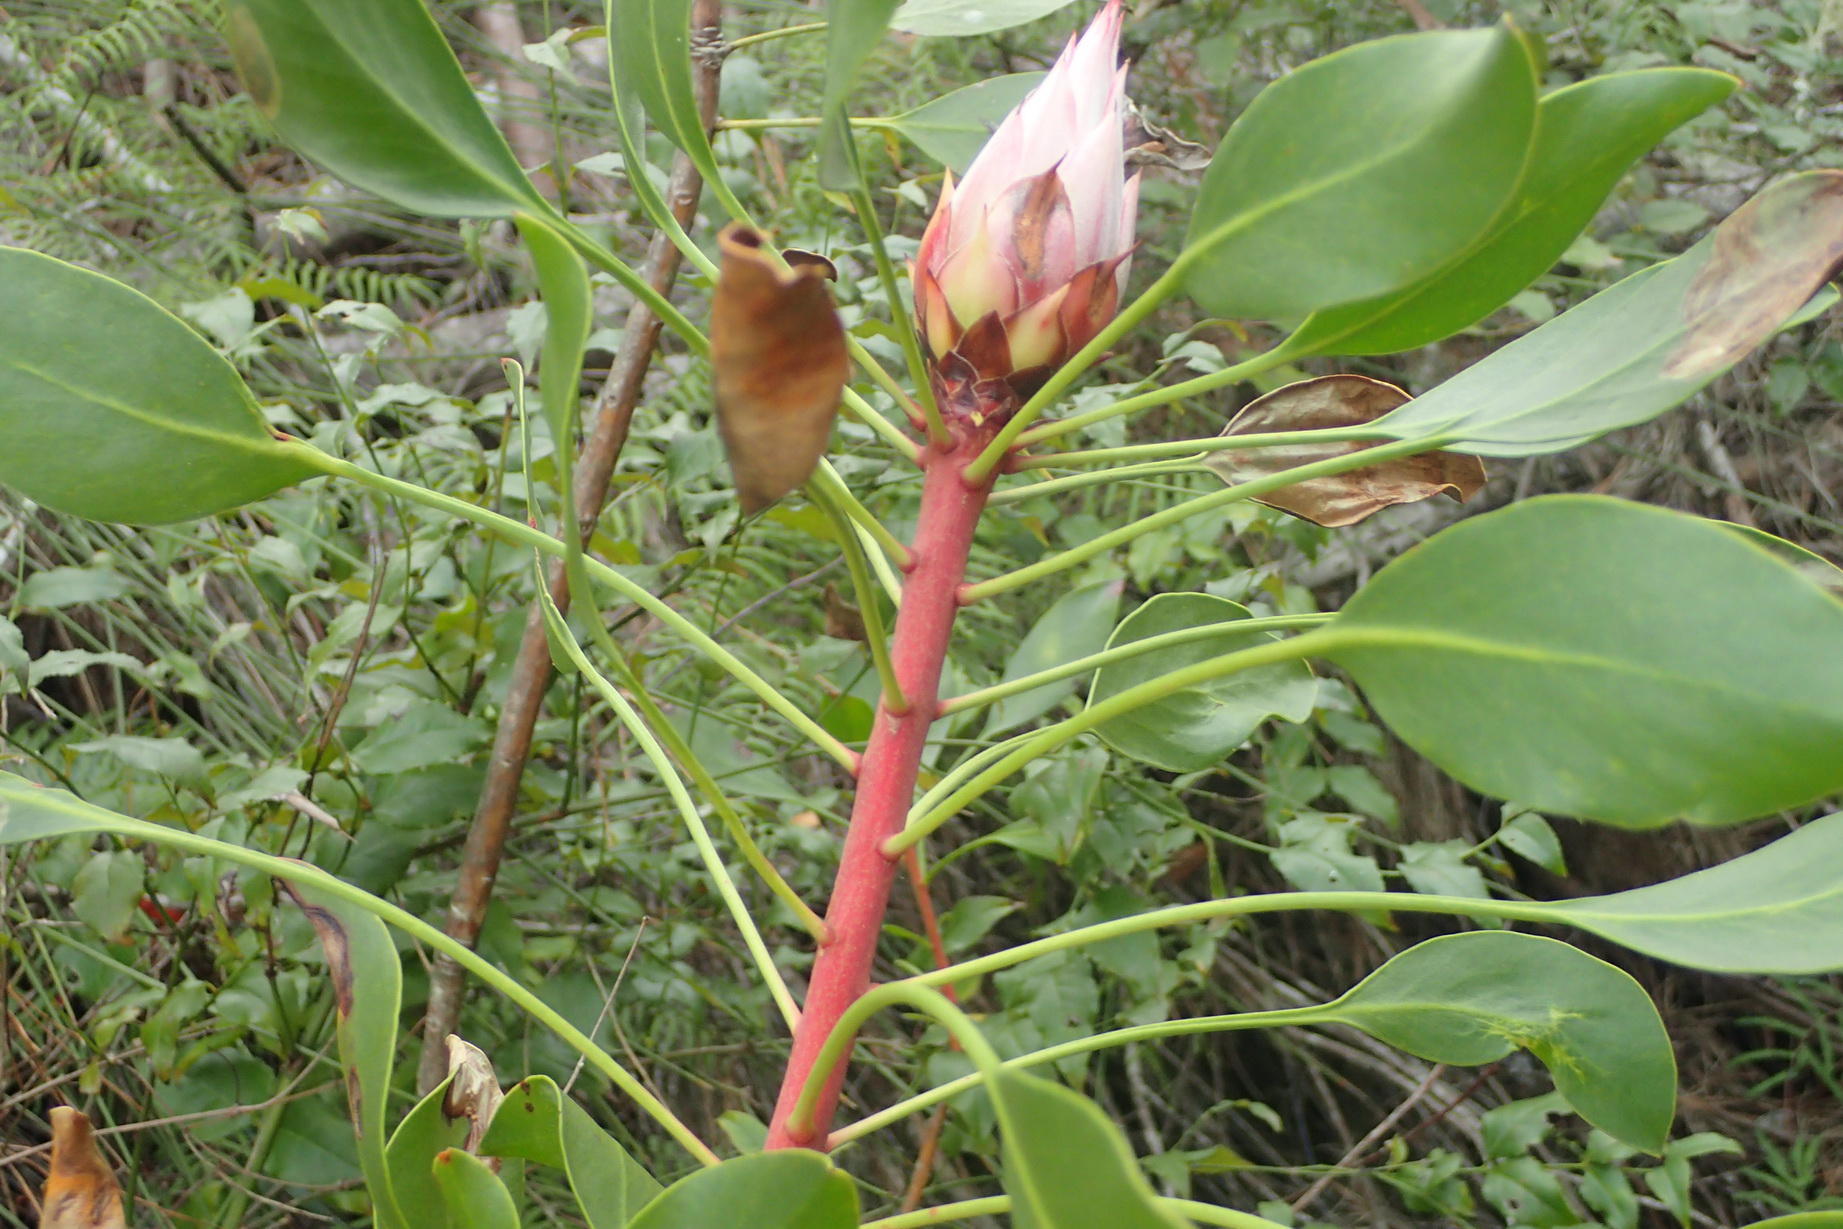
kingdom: Plantae
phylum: Tracheophyta
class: Magnoliopsida
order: Proteales
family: Proteaceae
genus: Protea
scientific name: Protea cynaroides
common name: King protea
